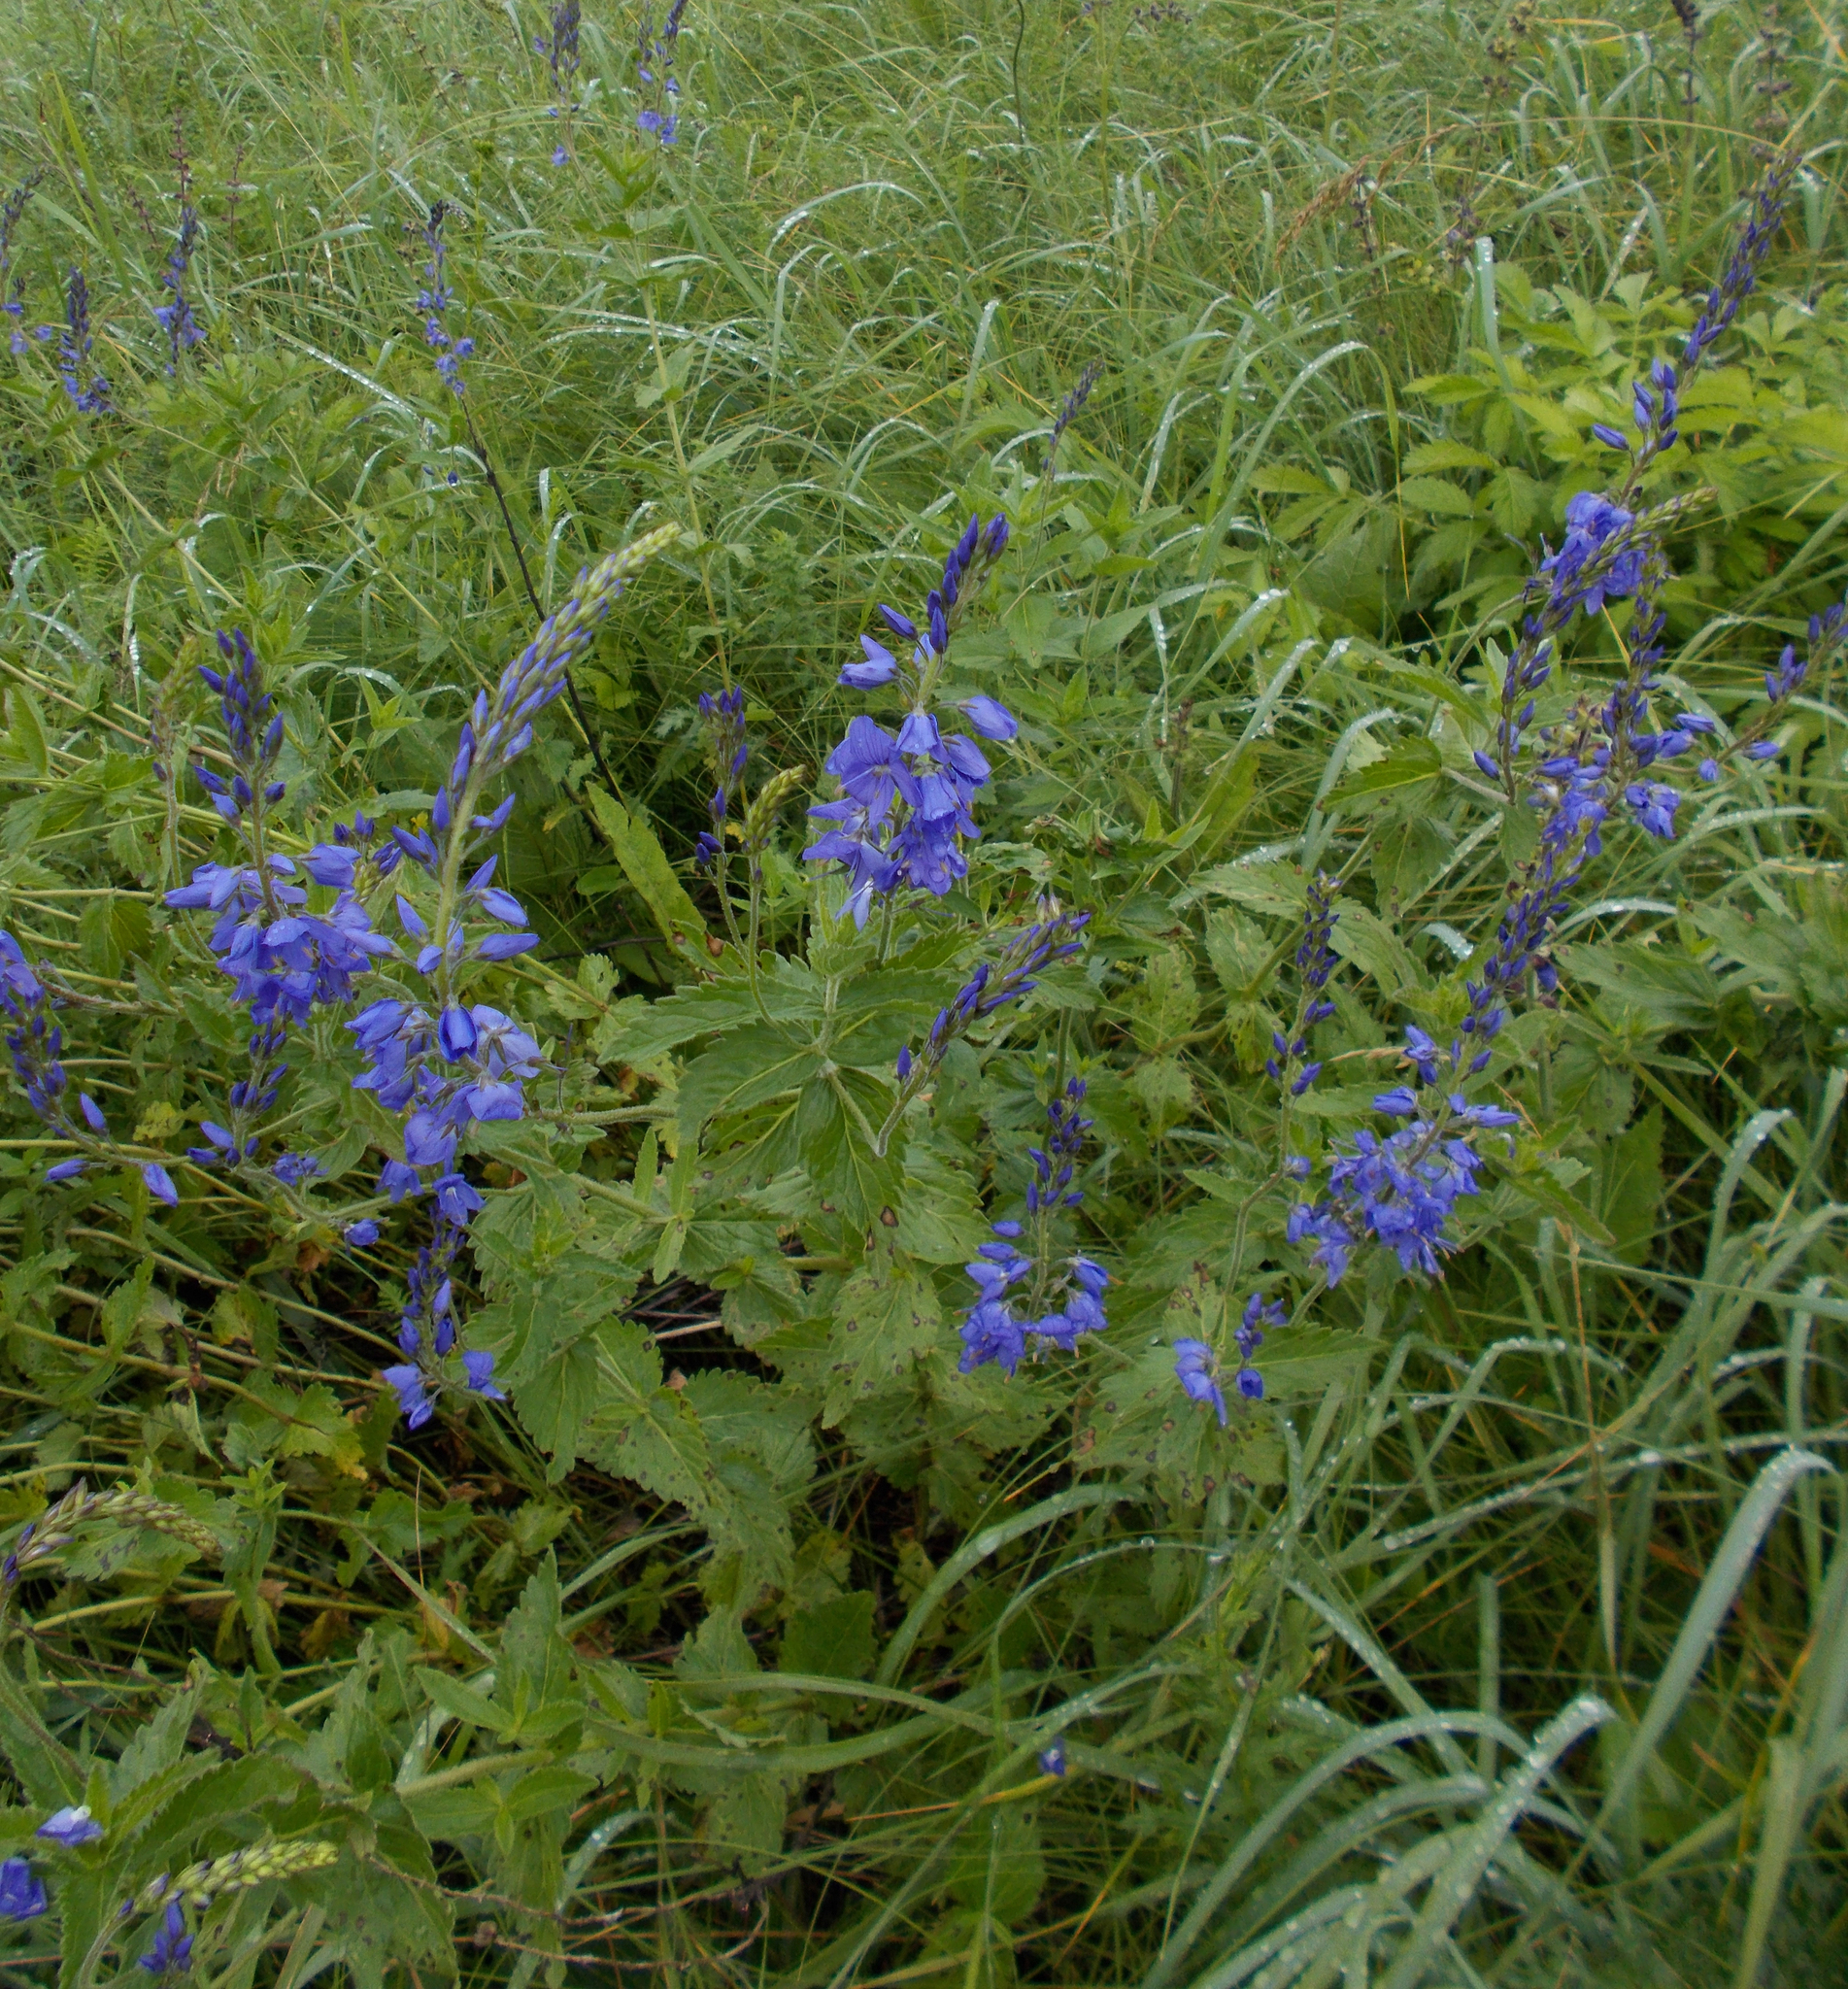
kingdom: Plantae
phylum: Tracheophyta
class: Magnoliopsida
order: Lamiales
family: Plantaginaceae
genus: Veronica
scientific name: Veronica teucrium
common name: Large speedwell
